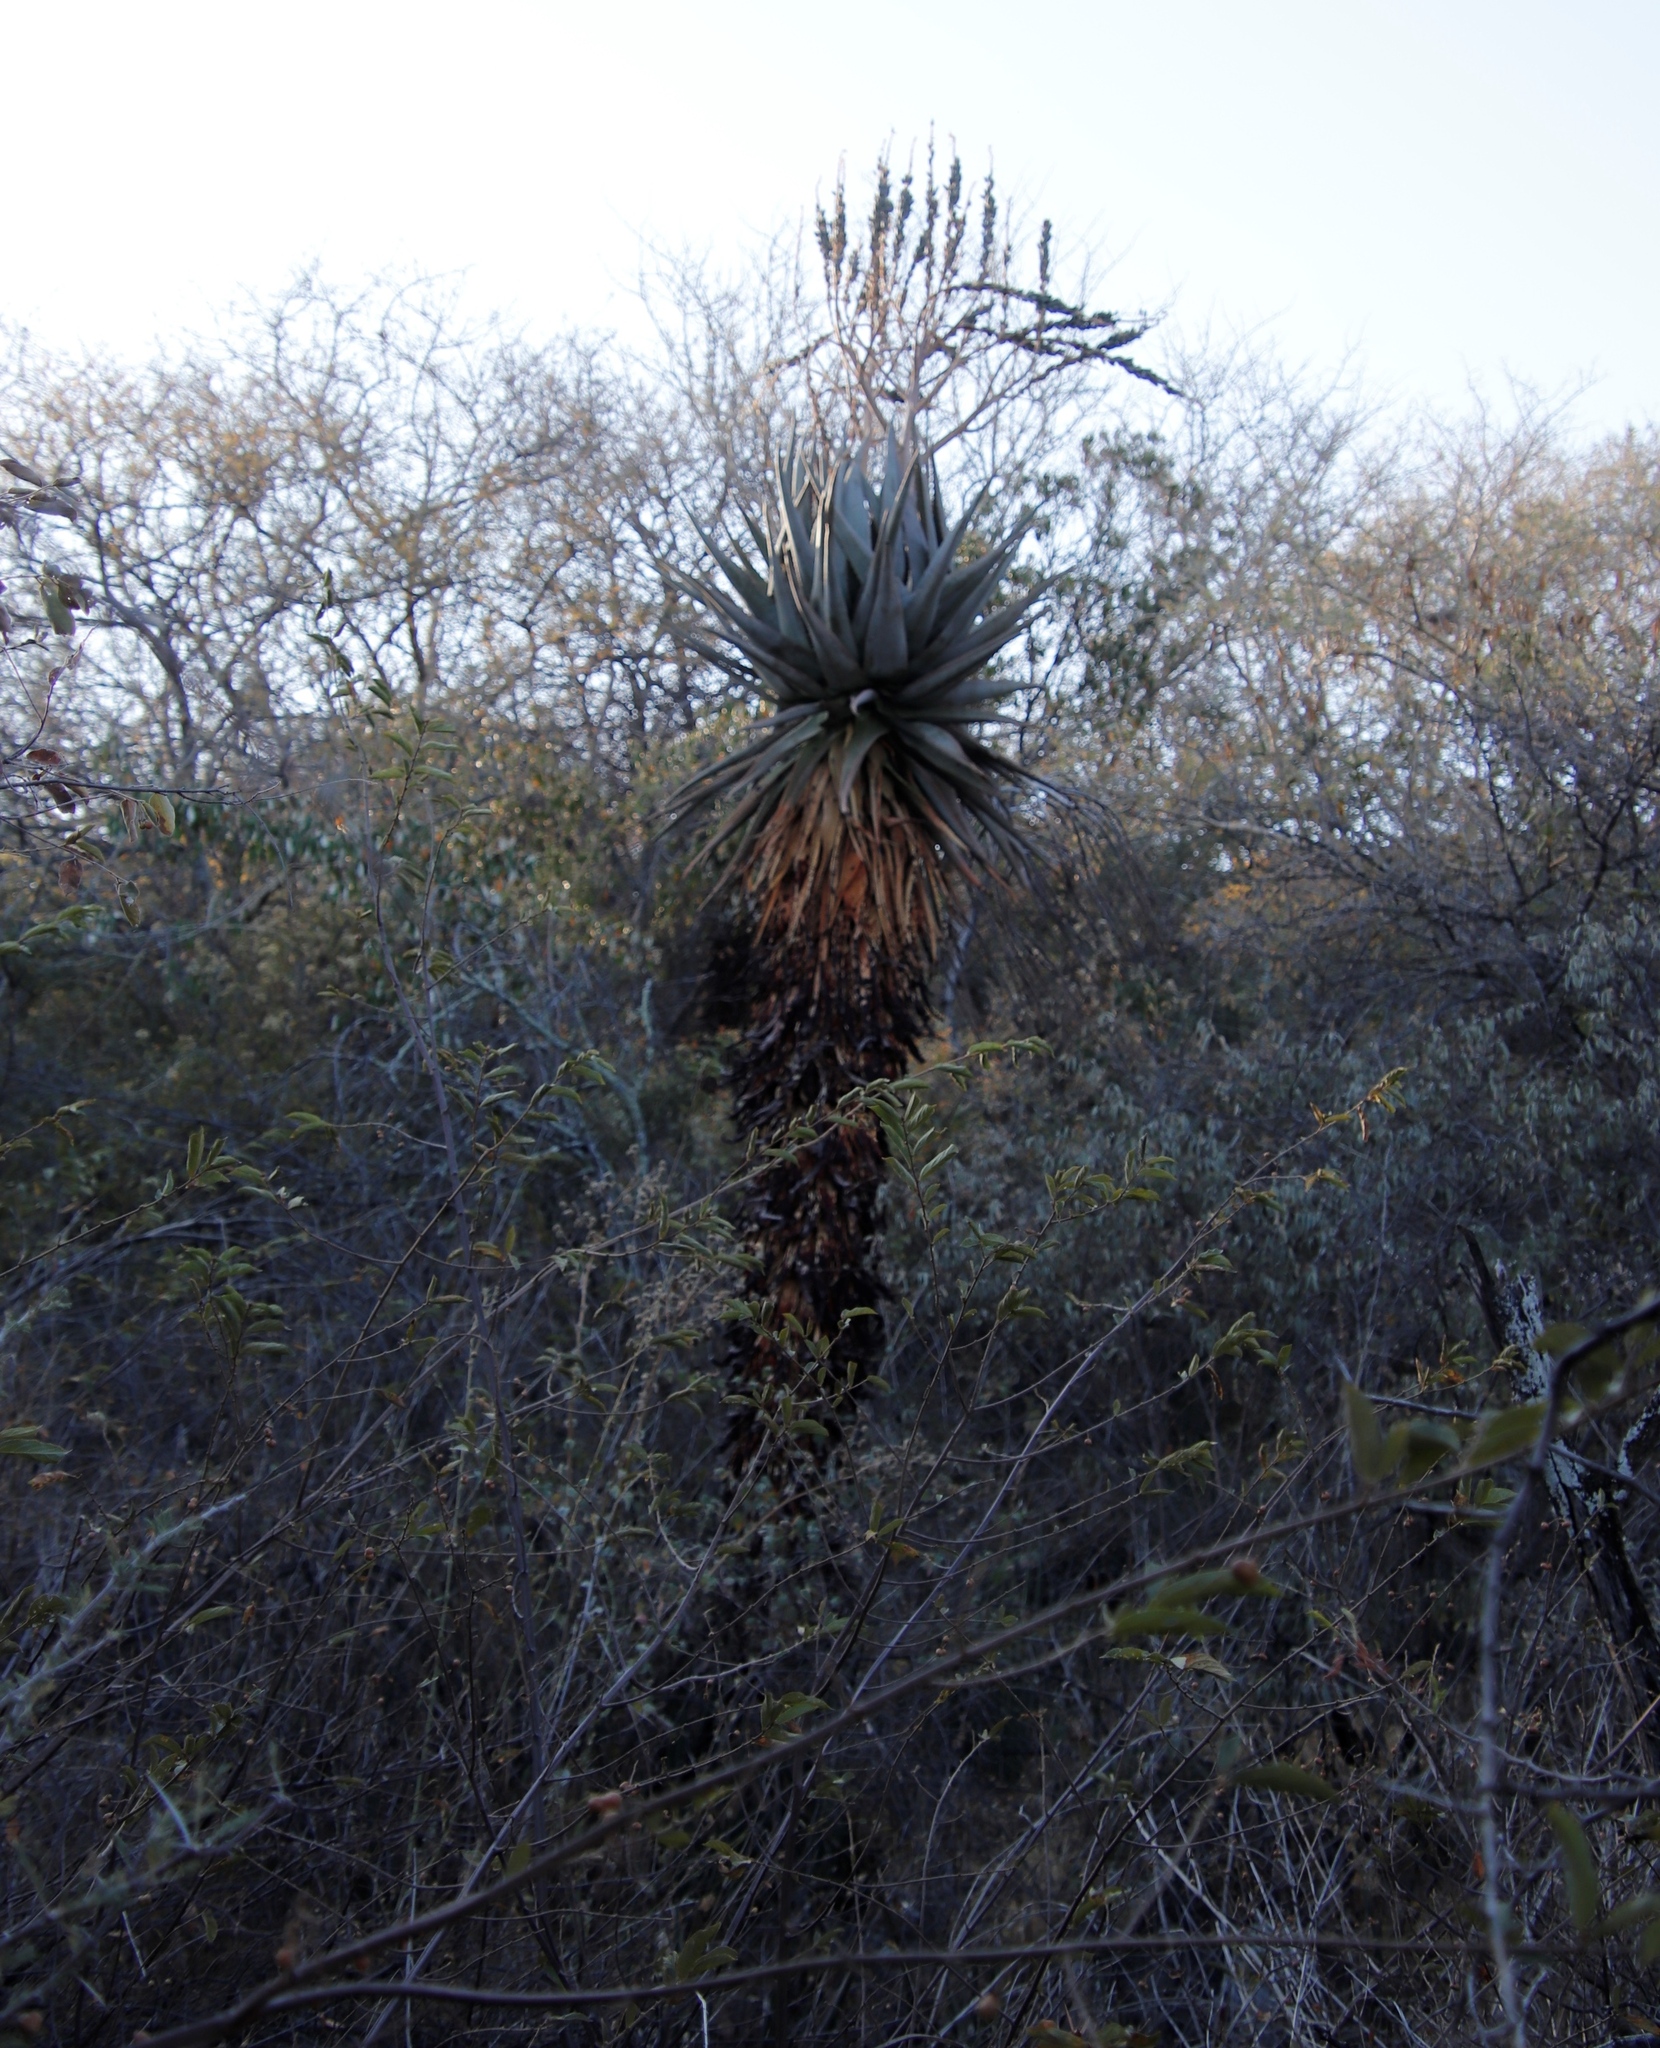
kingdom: Plantae
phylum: Tracheophyta
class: Liliopsida
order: Asparagales
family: Asphodelaceae
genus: Aloe
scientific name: Aloe littoralis
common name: Luanda tree aloe
